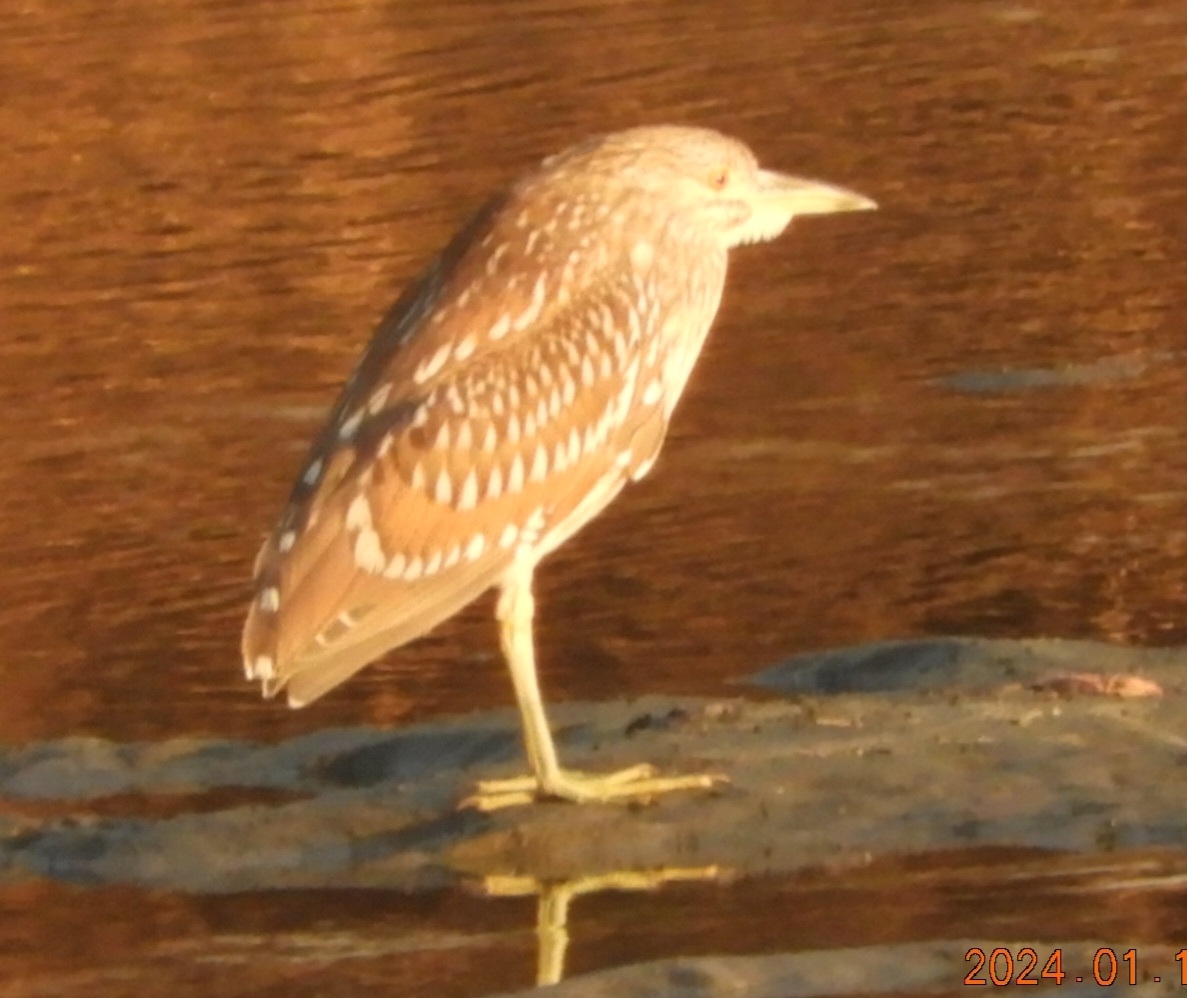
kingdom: Animalia
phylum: Chordata
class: Aves
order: Pelecaniformes
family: Ardeidae
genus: Nycticorax
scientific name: Nycticorax nycticorax
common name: Black-crowned night heron
